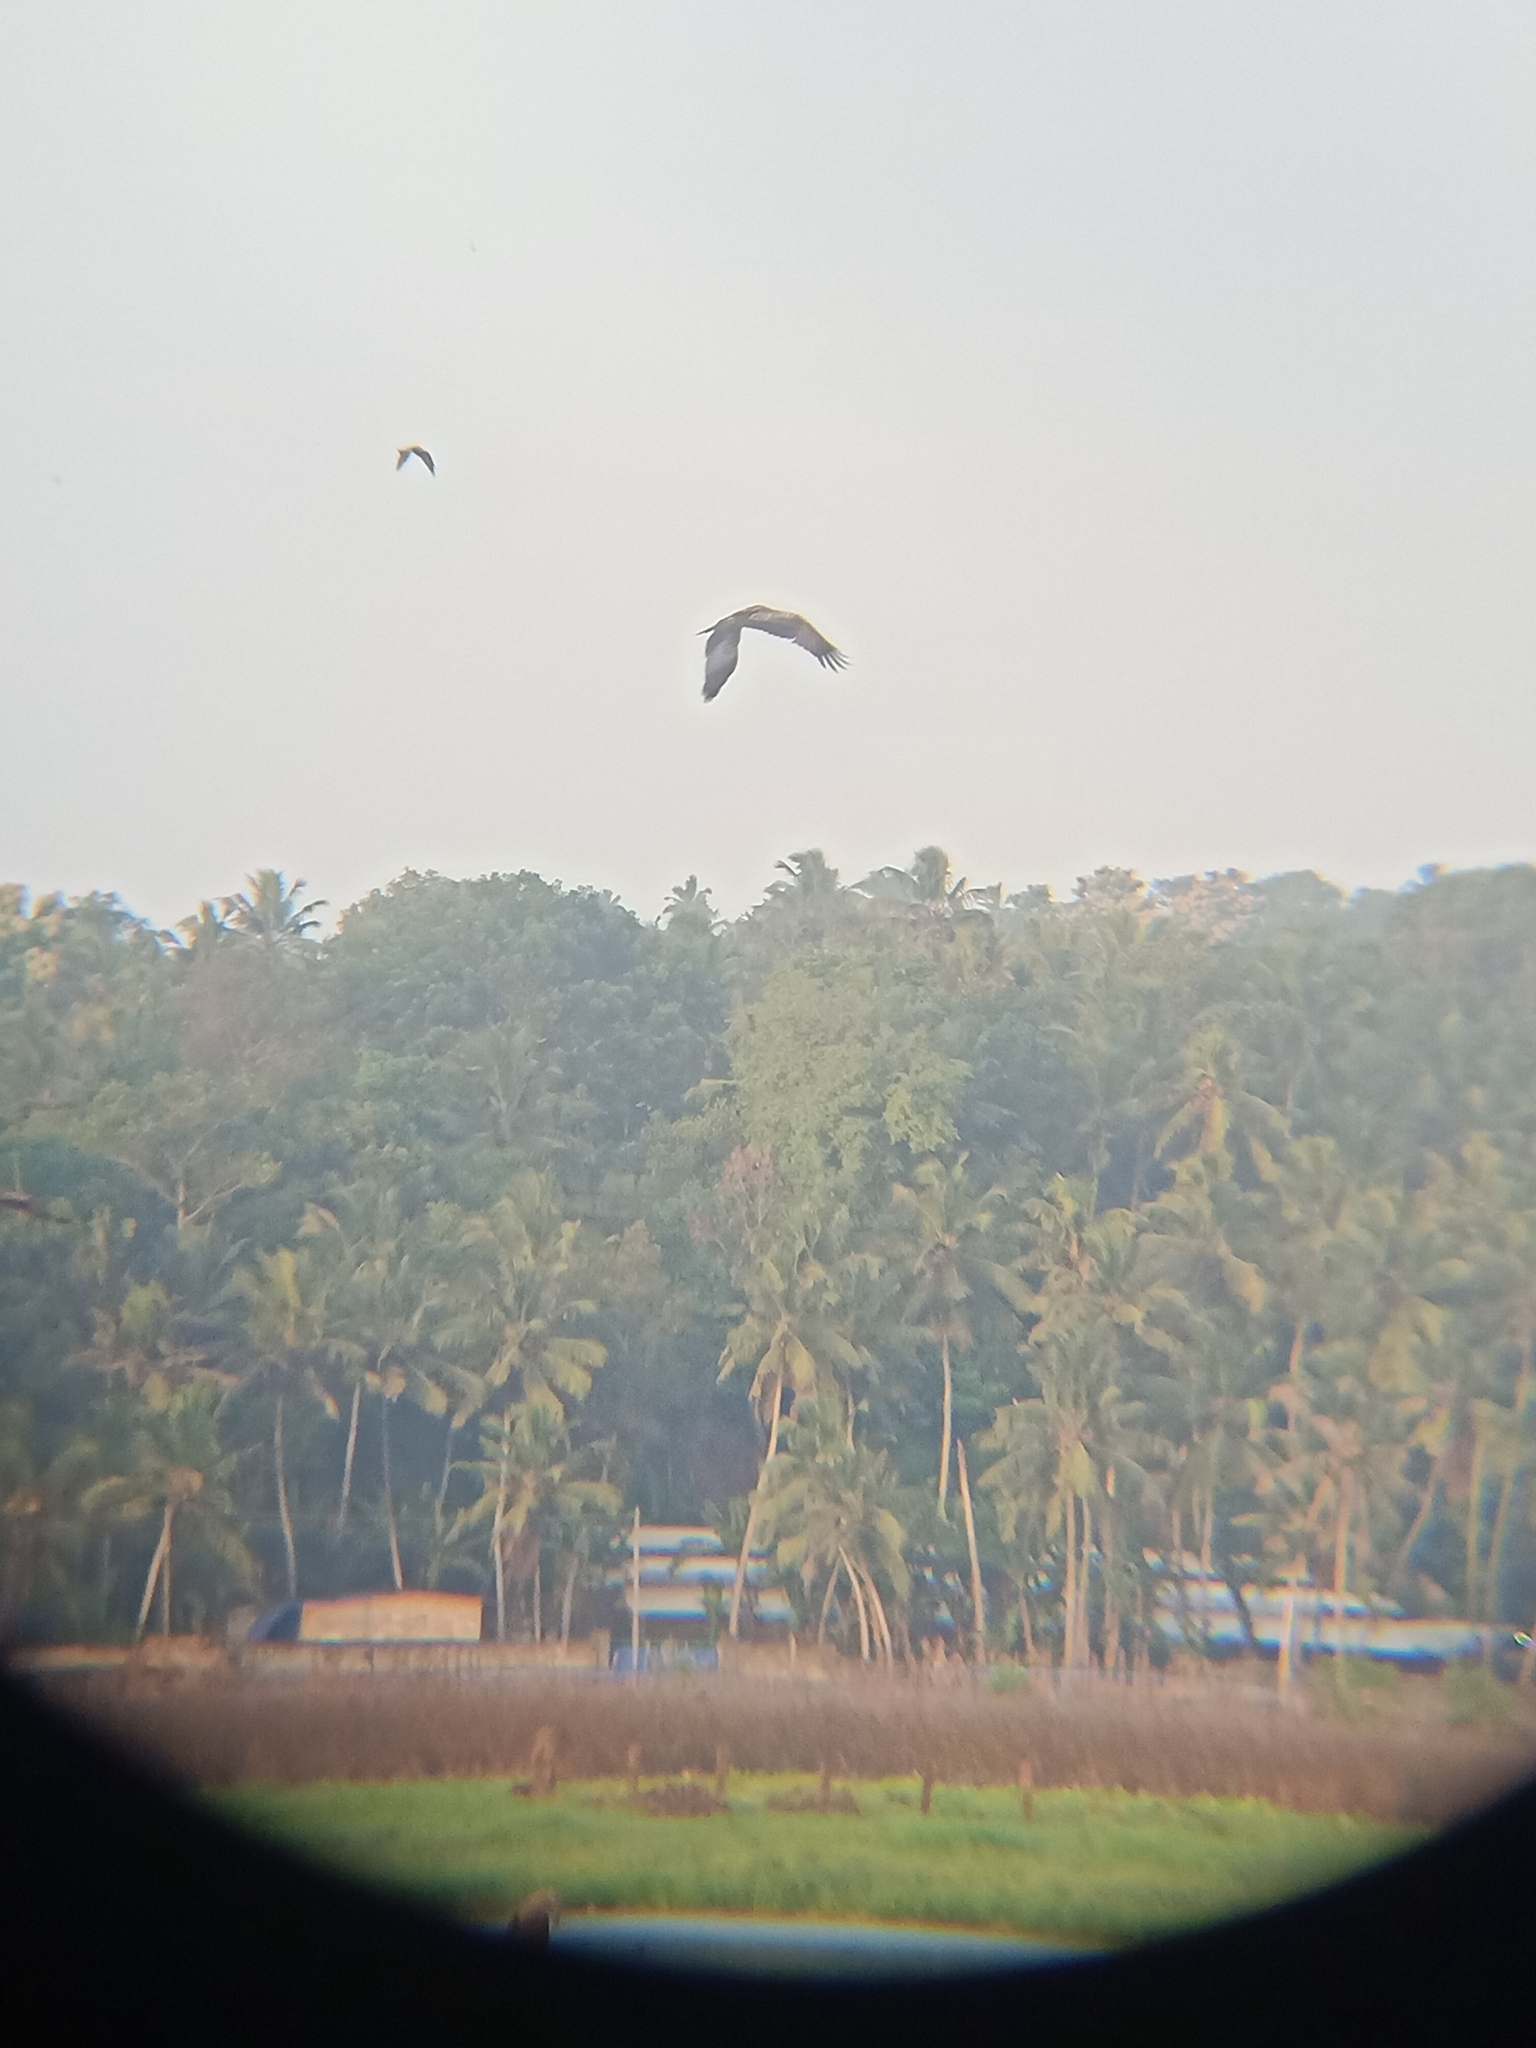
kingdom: Animalia
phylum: Chordata
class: Aves
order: Accipitriformes
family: Accipitridae
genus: Milvus
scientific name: Milvus migrans
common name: Black kite
